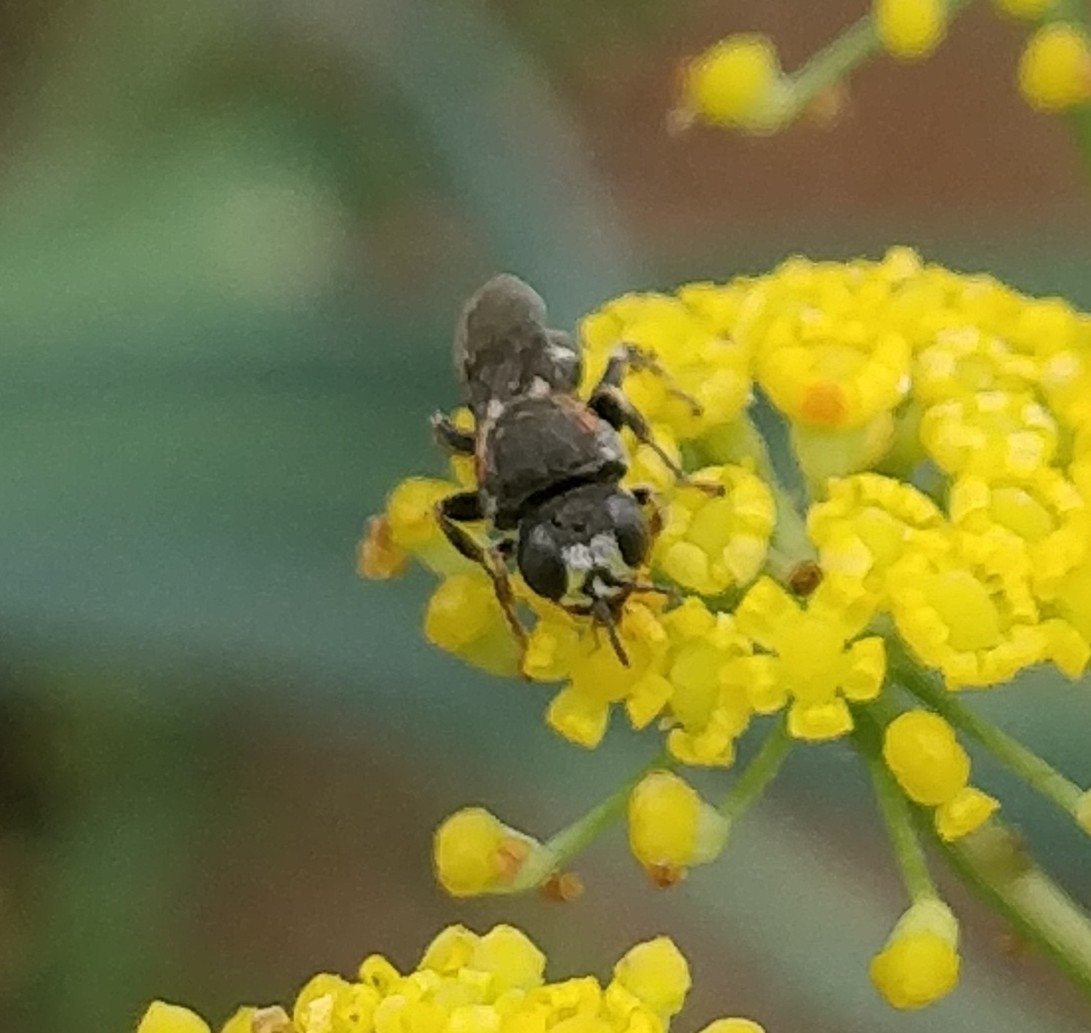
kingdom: Animalia
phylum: Arthropoda
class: Insecta
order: Hymenoptera
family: Crabronidae
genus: Oxybelus
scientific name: Oxybelus fischeri
